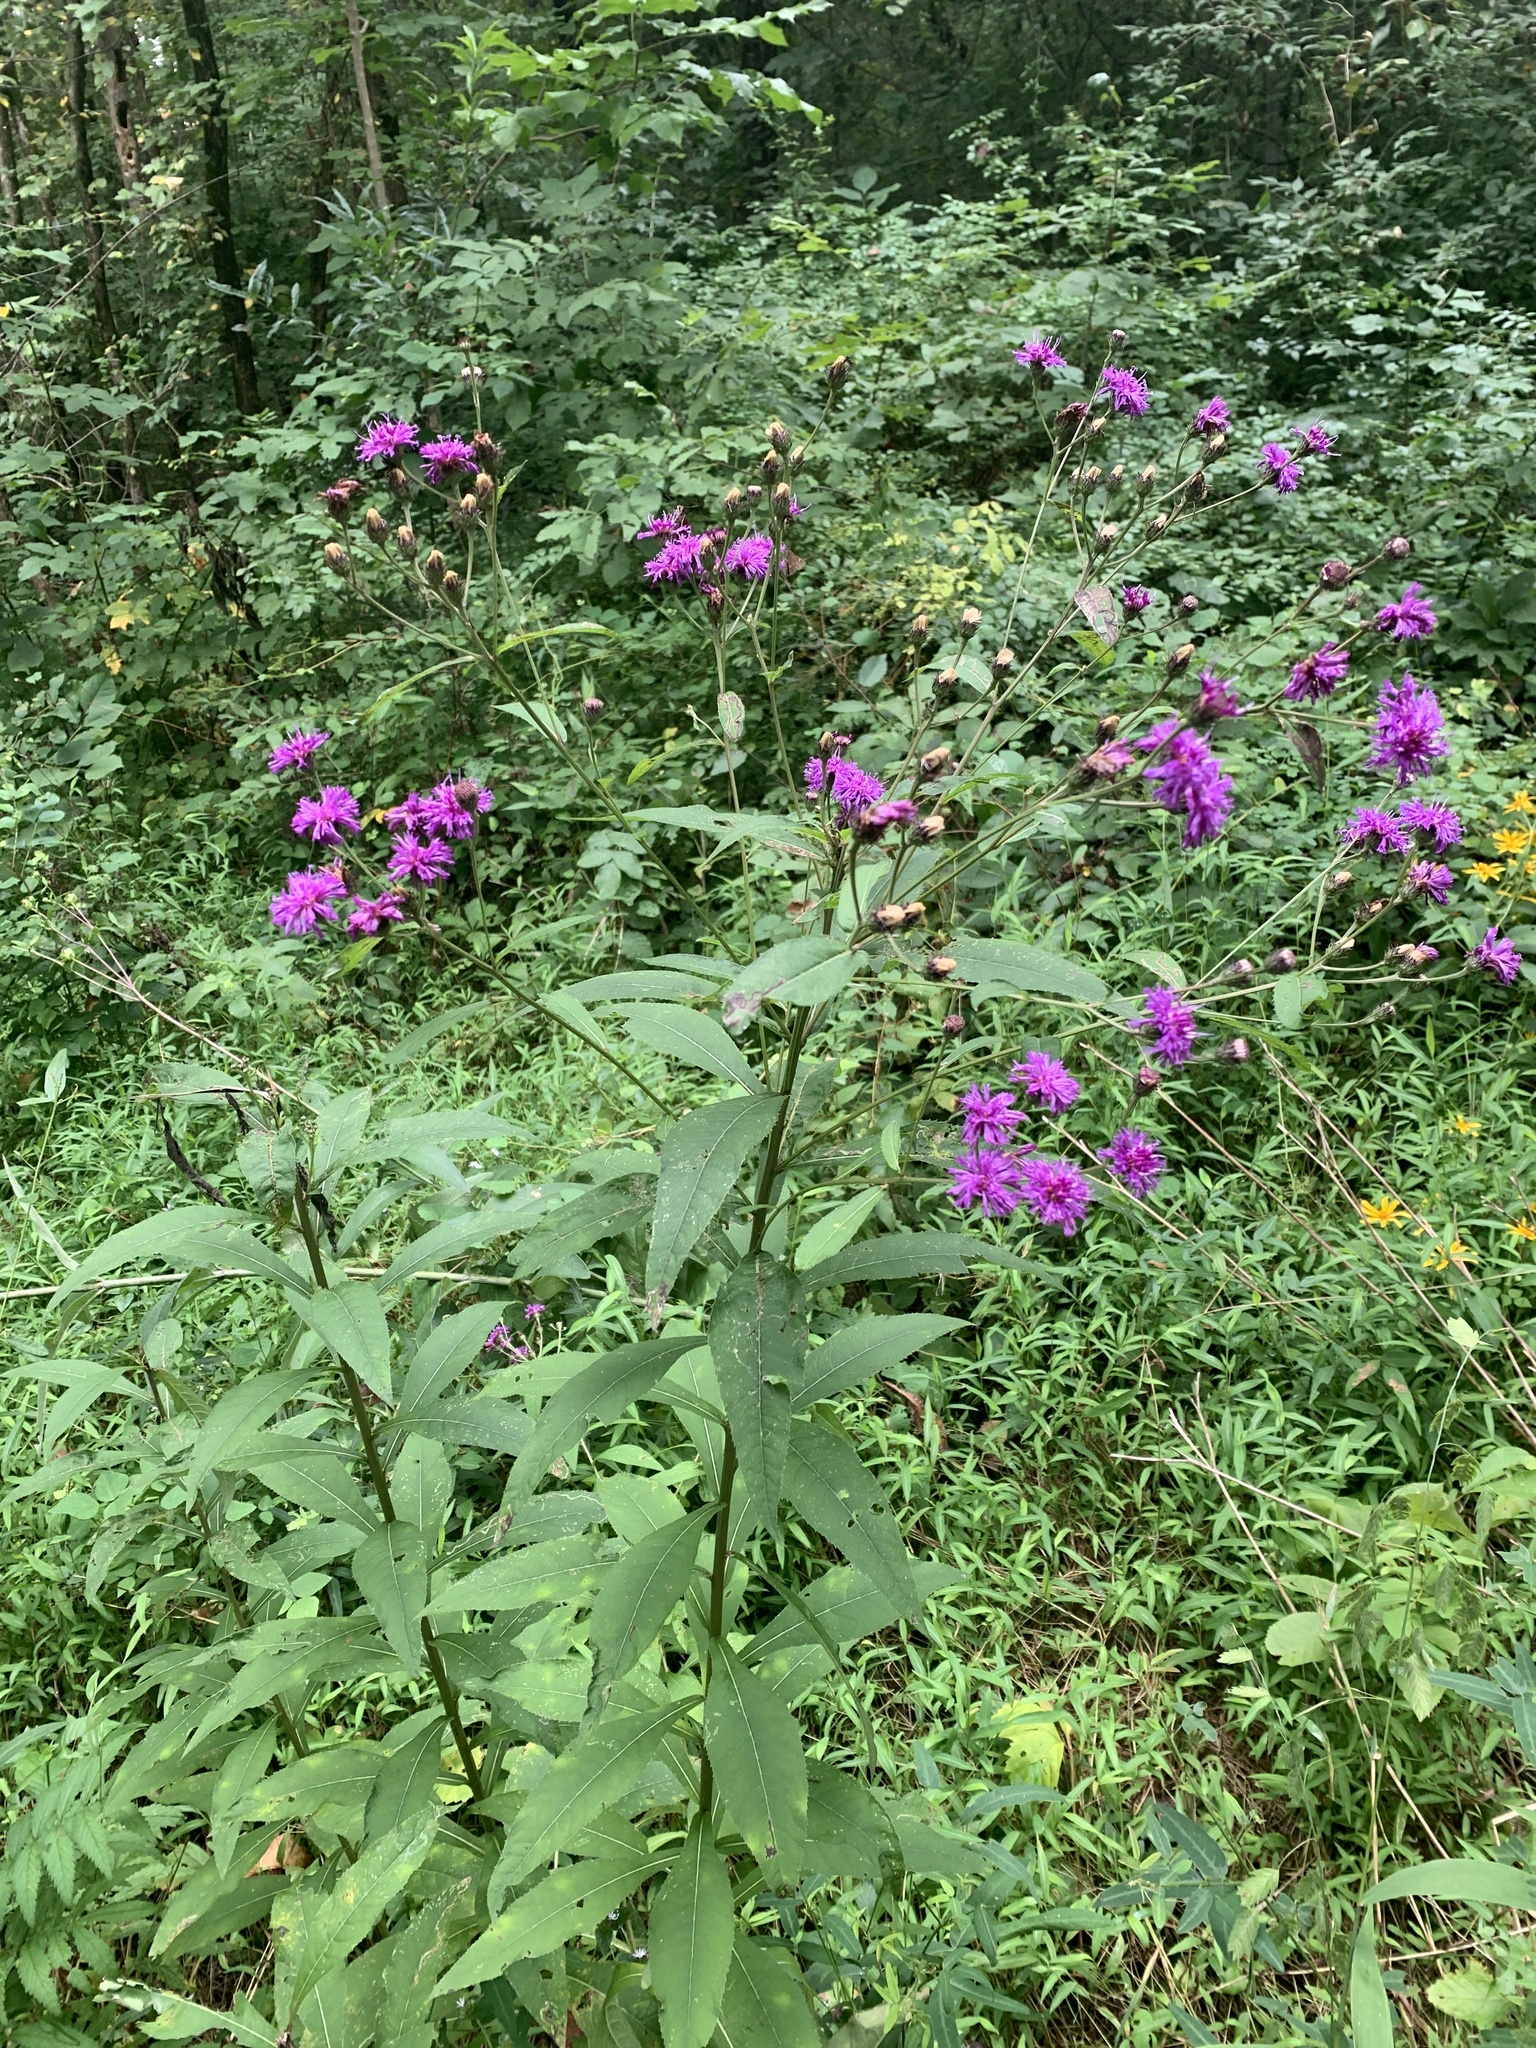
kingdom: Plantae
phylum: Tracheophyta
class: Magnoliopsida
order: Asterales
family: Asteraceae
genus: Vernonia
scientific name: Vernonia gigantea
